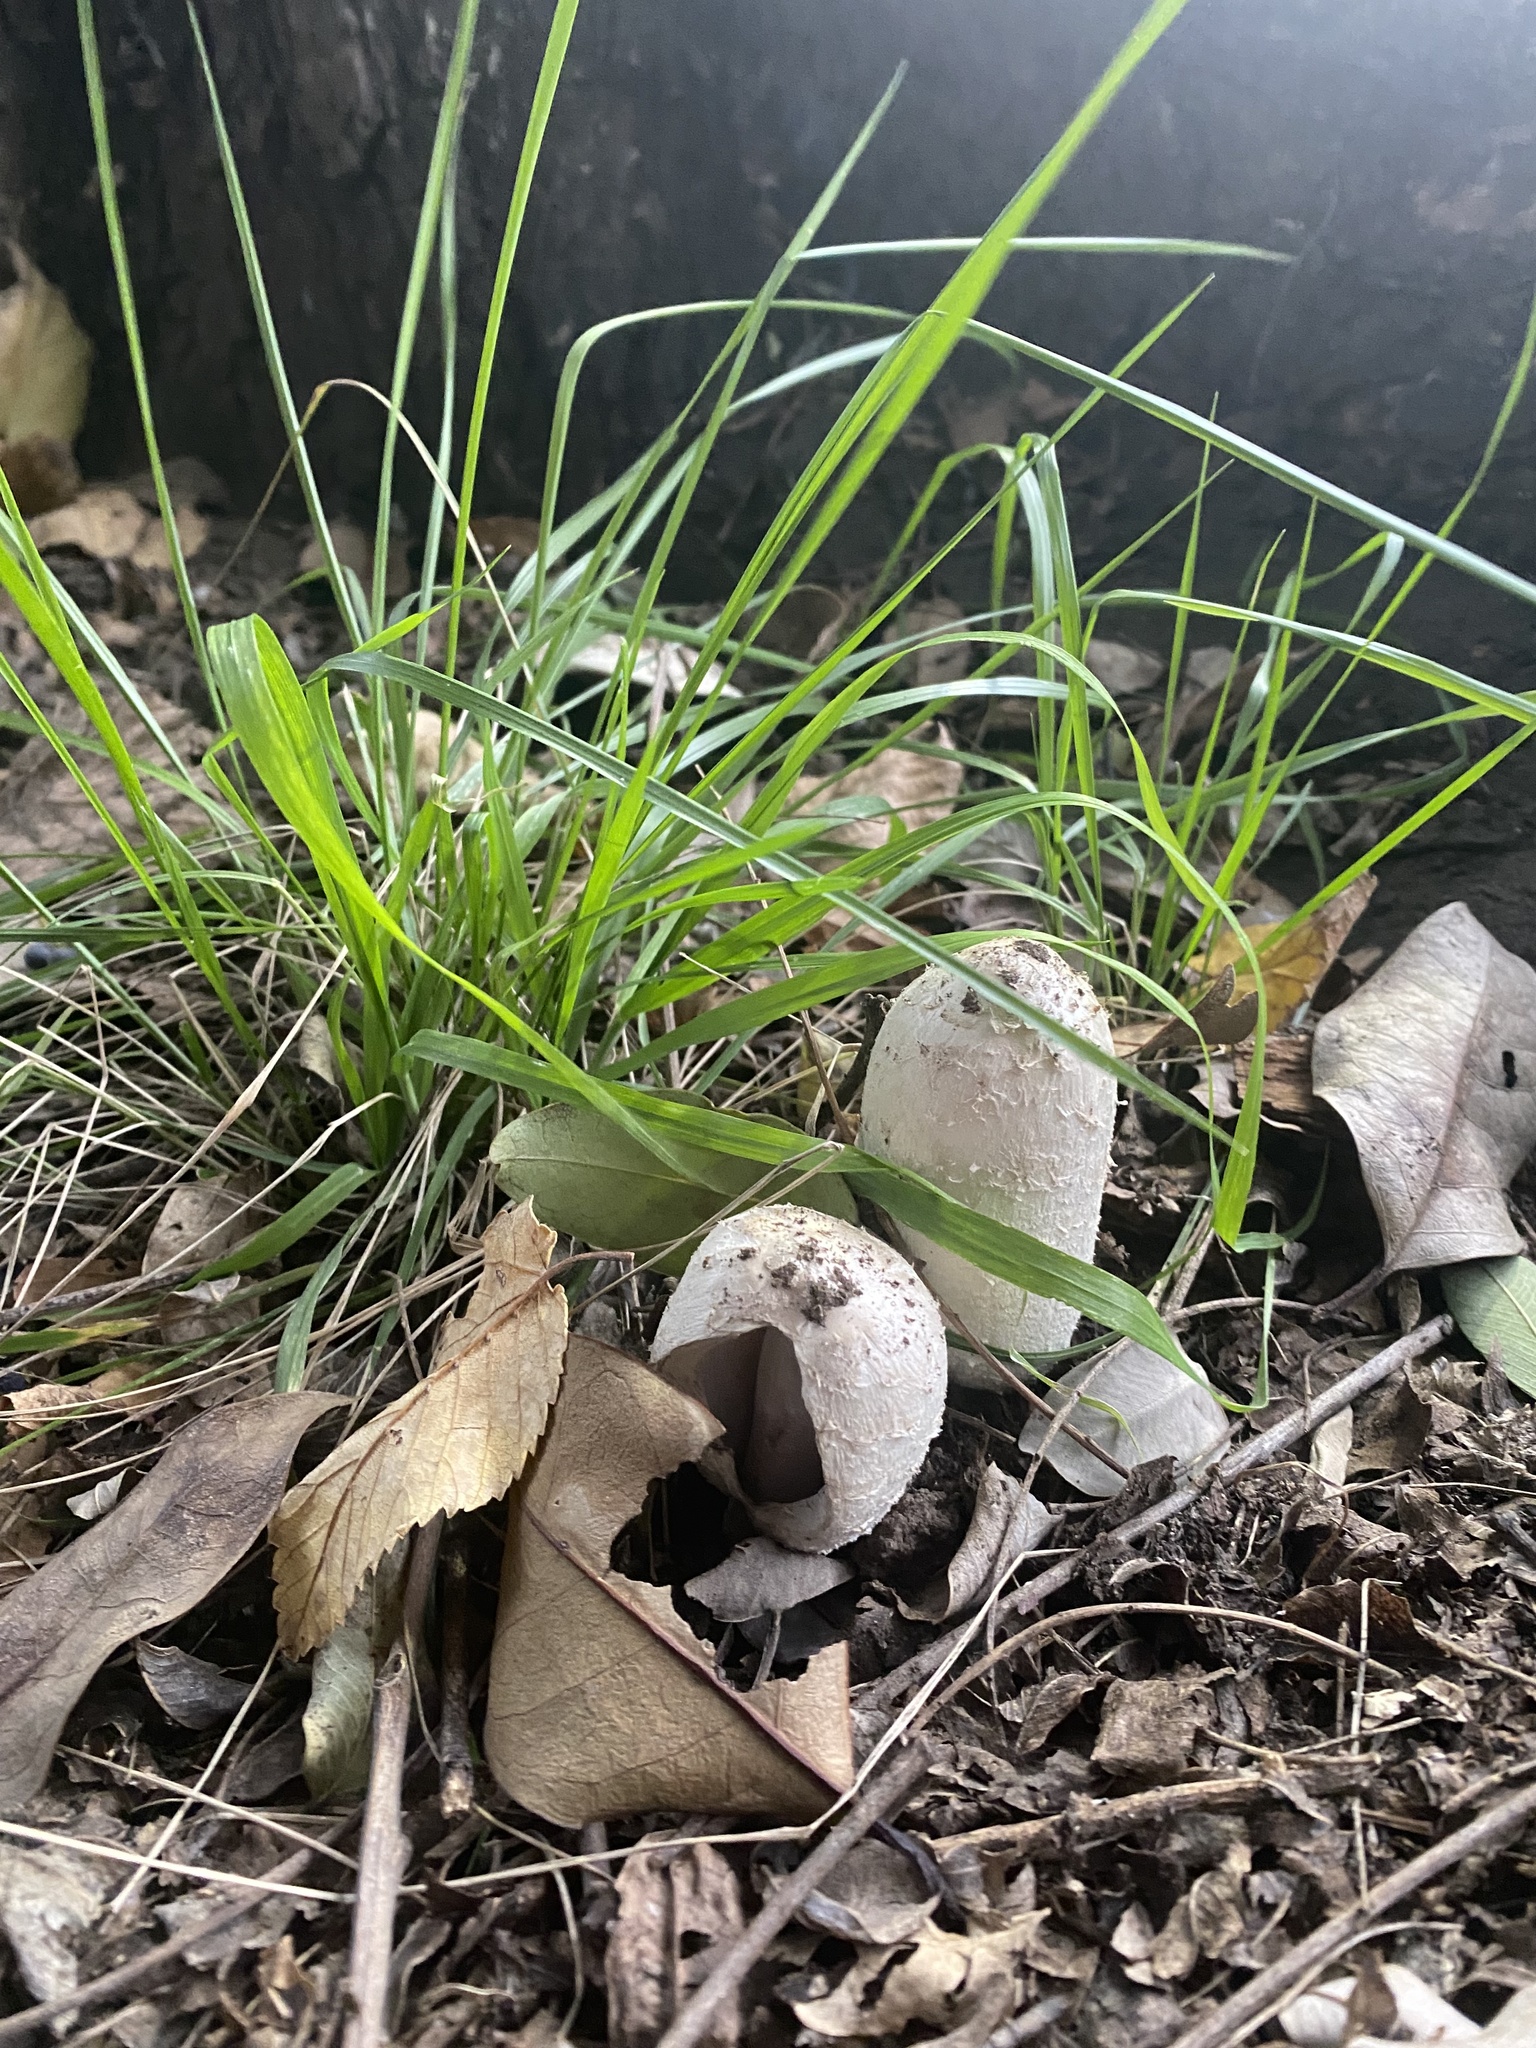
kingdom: Fungi
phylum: Basidiomycota
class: Agaricomycetes
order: Agaricales
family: Agaricaceae
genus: Coprinus
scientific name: Coprinus comatus
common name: Lawyer's wig
